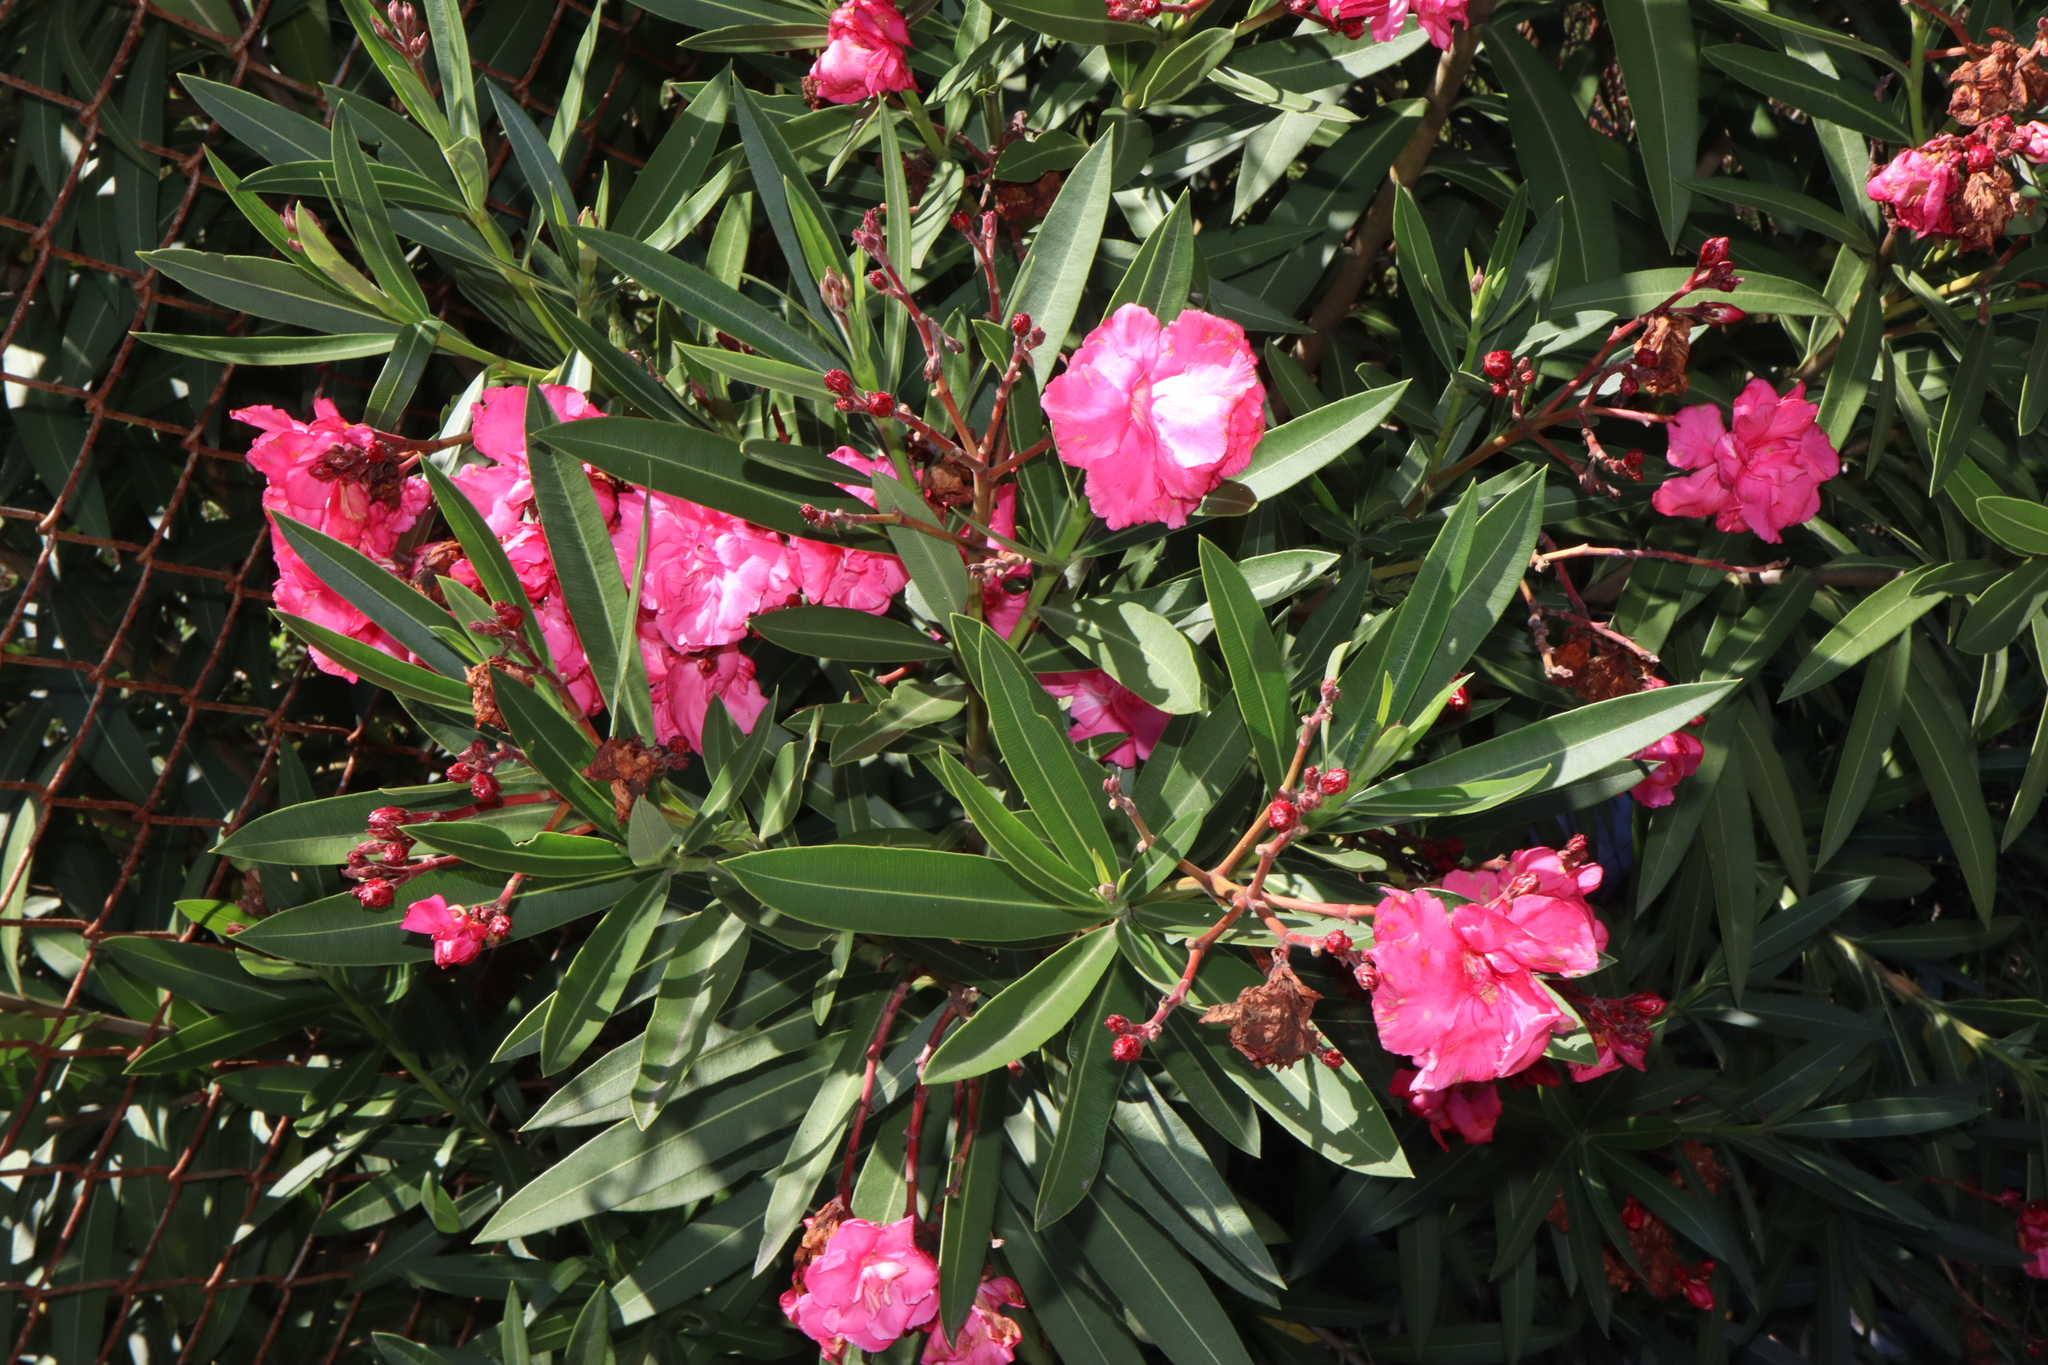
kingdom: Plantae
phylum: Tracheophyta
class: Magnoliopsida
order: Gentianales
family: Apocynaceae
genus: Nerium
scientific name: Nerium oleander
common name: Oleander
